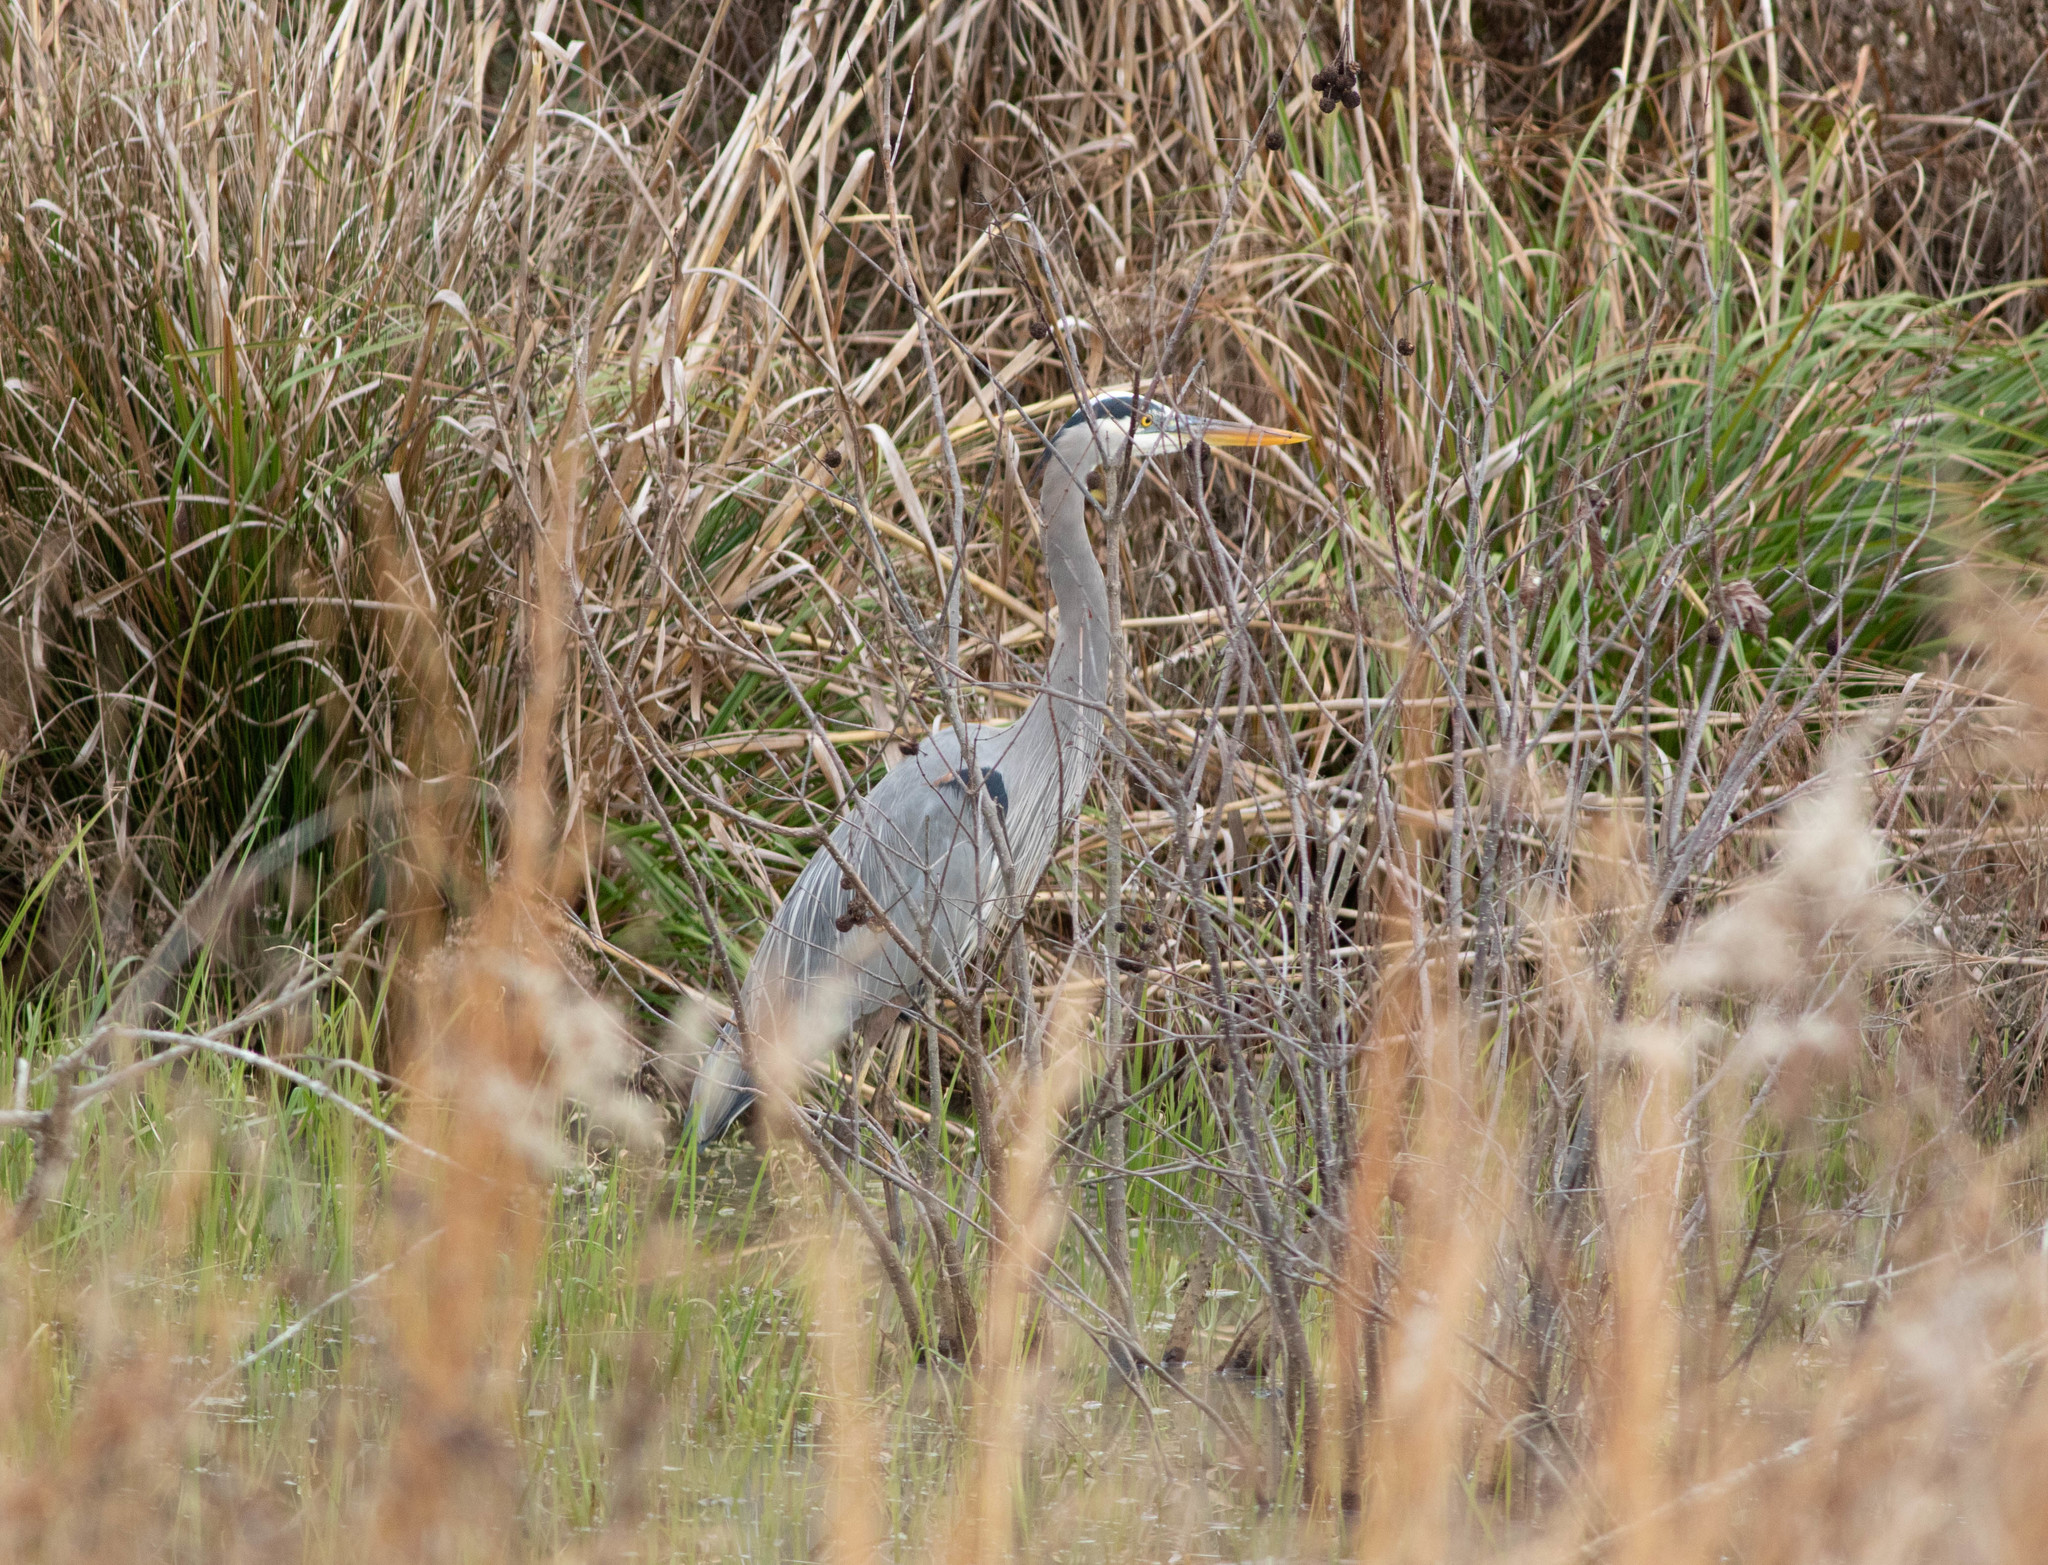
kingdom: Animalia
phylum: Chordata
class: Aves
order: Pelecaniformes
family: Ardeidae
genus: Ardea
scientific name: Ardea herodias
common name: Great blue heron
